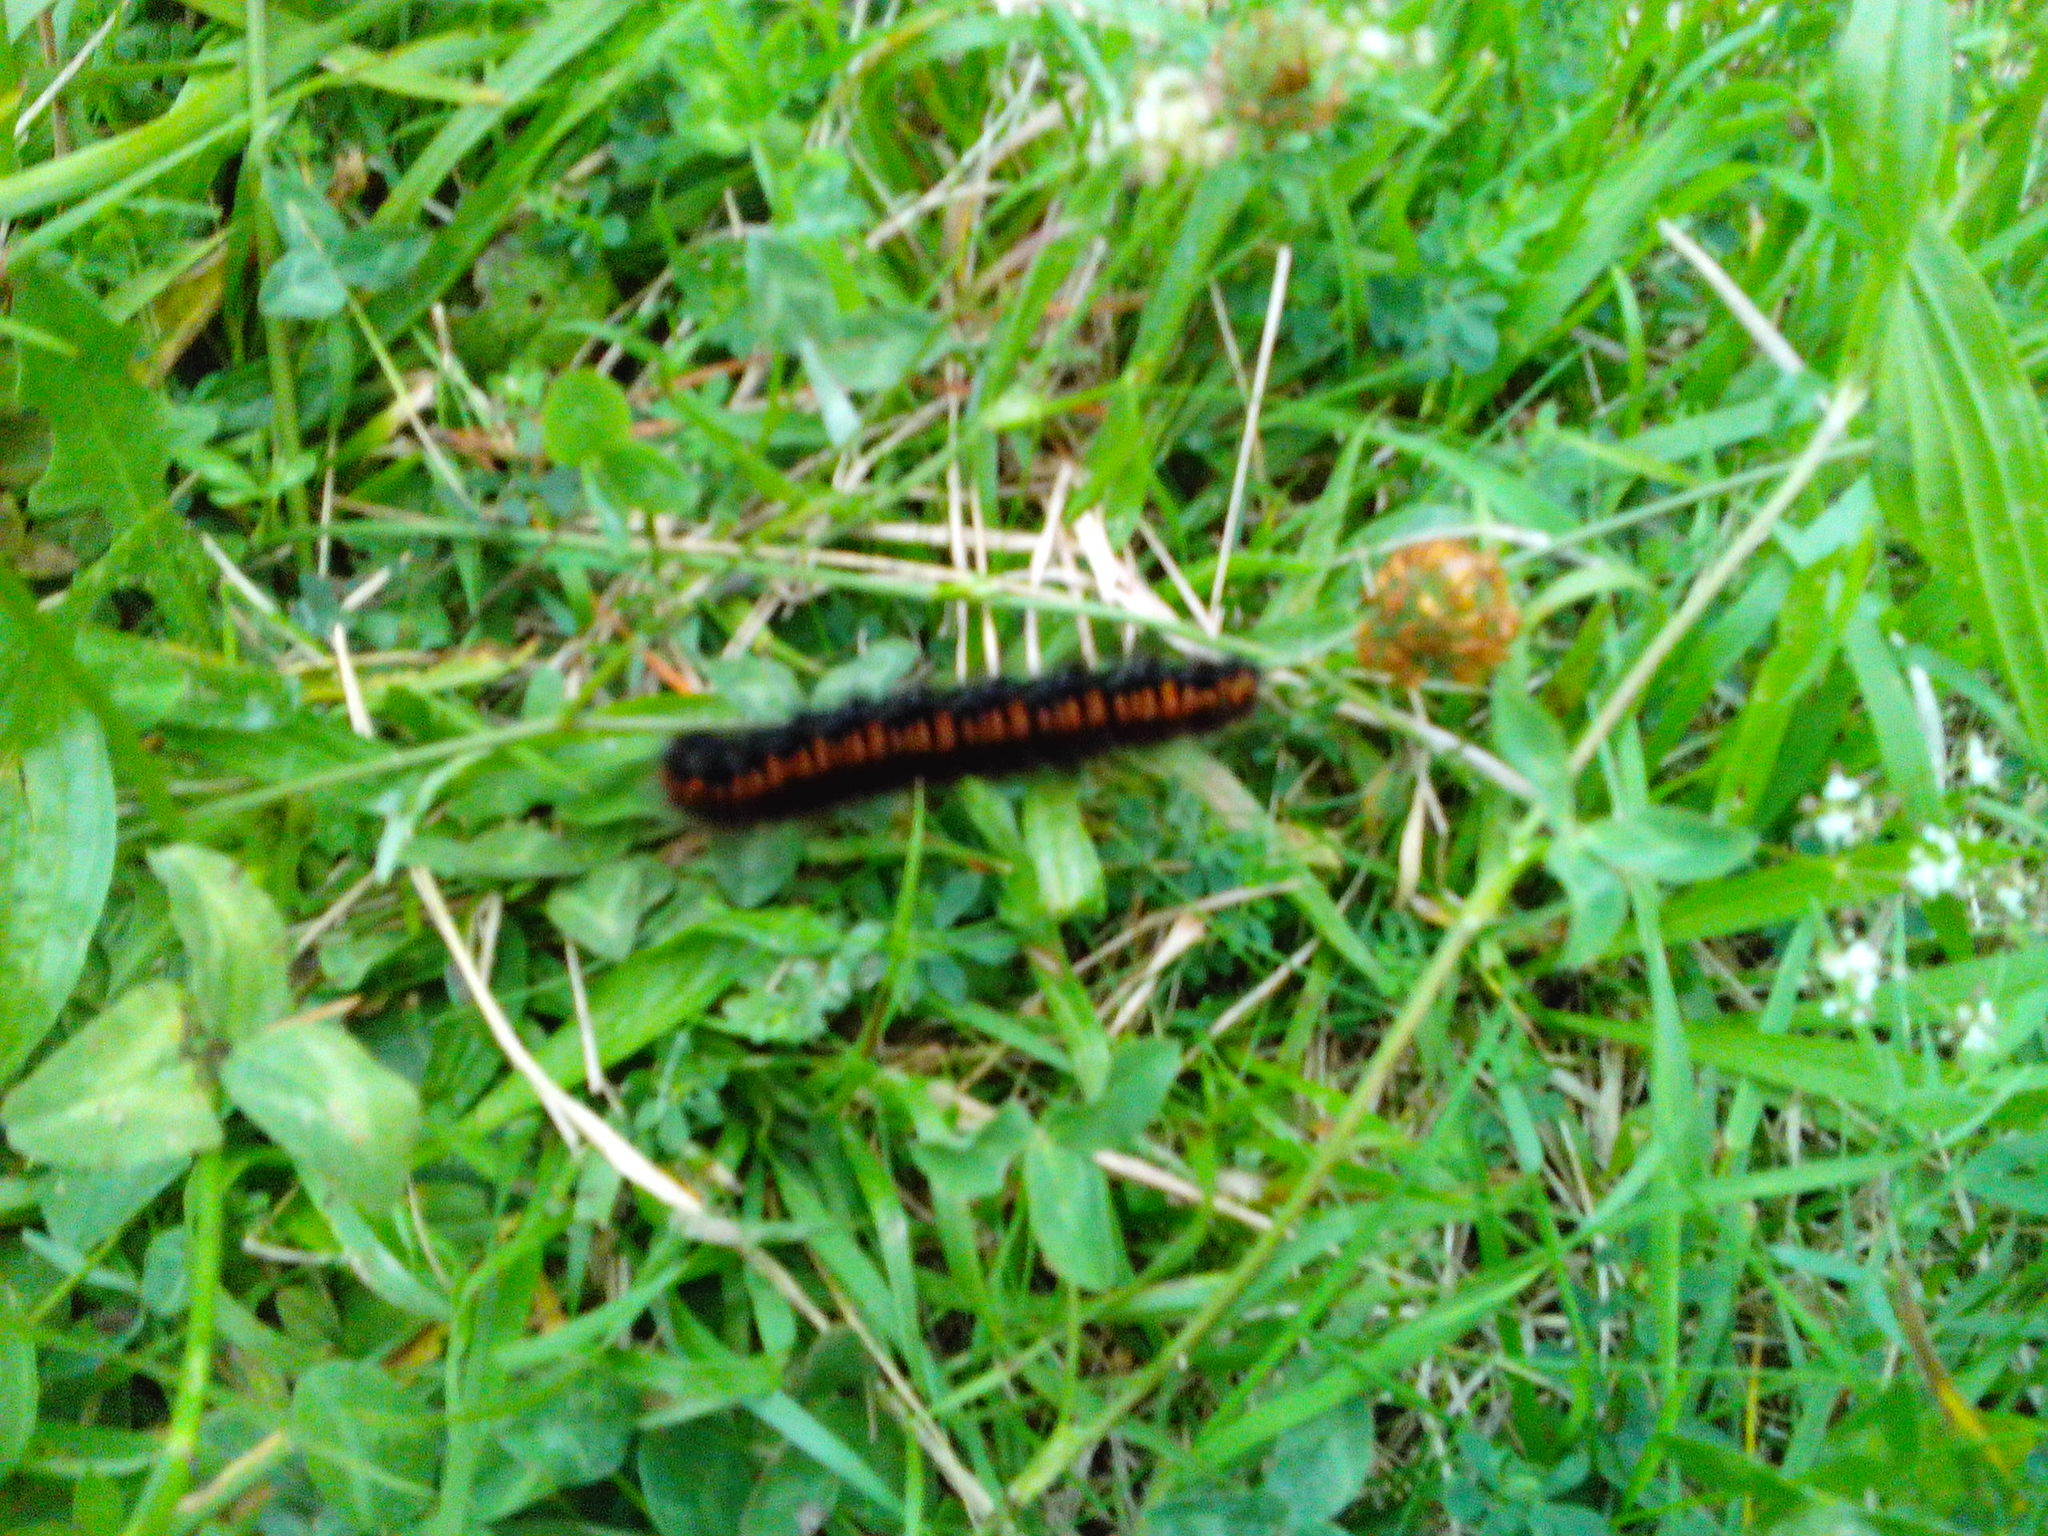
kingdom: Animalia
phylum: Arthropoda
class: Insecta
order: Lepidoptera
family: Lasiocampidae
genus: Macrothylacia
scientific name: Macrothylacia rubi
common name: Fox moth
